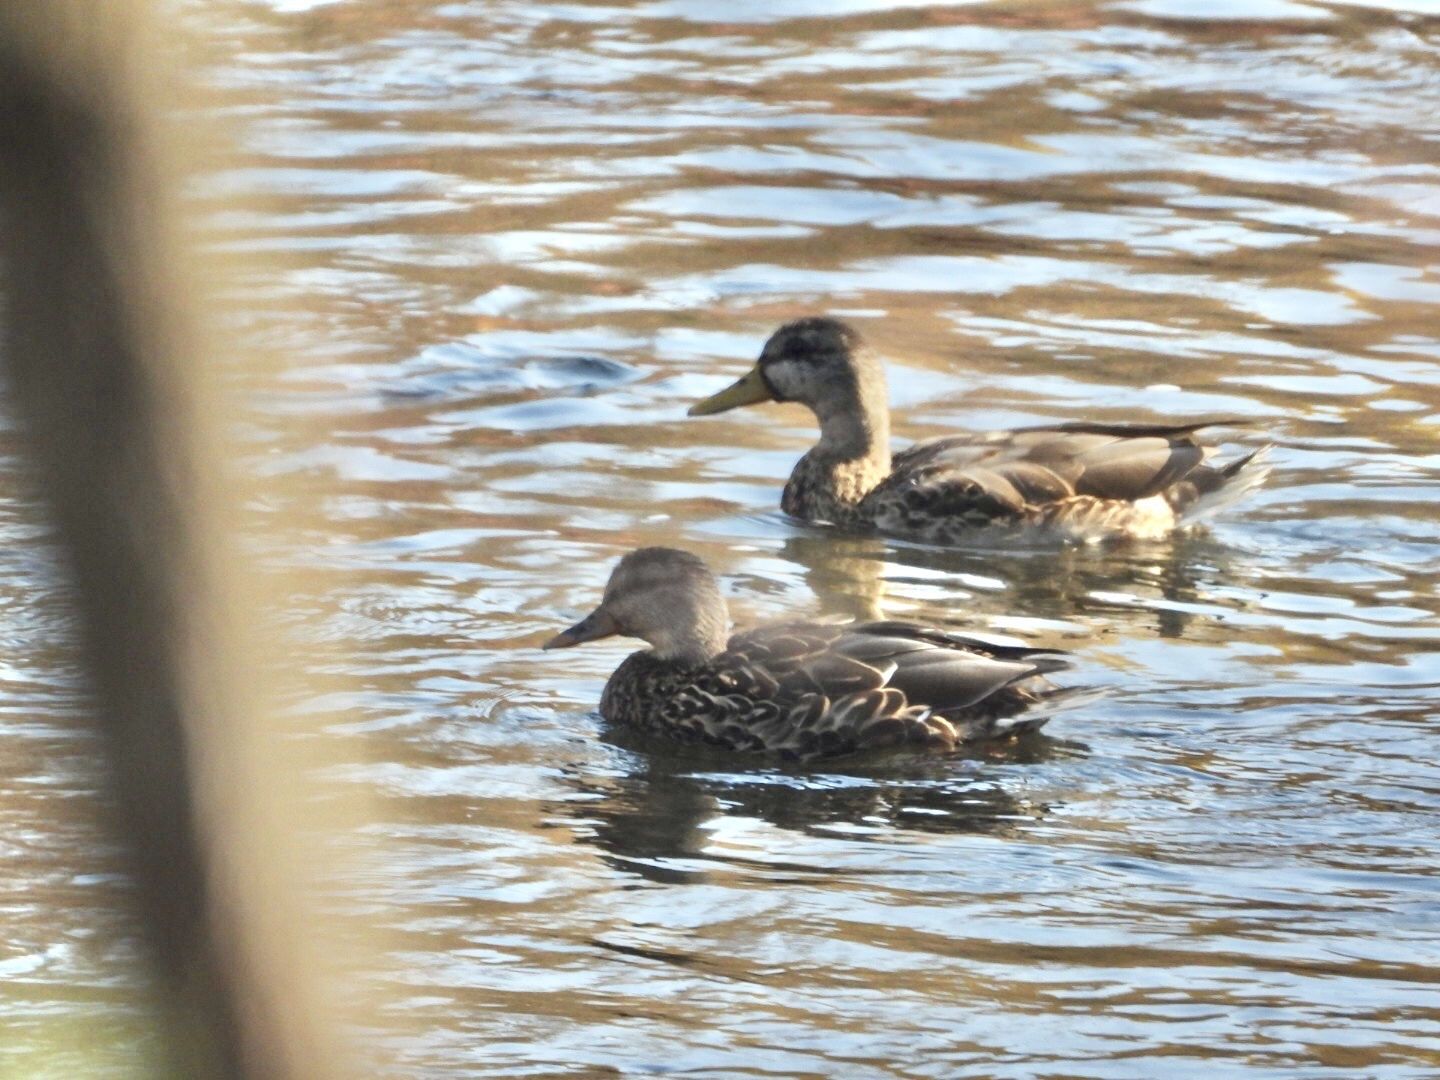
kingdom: Animalia
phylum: Chordata
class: Aves
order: Anseriformes
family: Anatidae
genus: Anas
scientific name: Anas platyrhynchos
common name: Mallard
